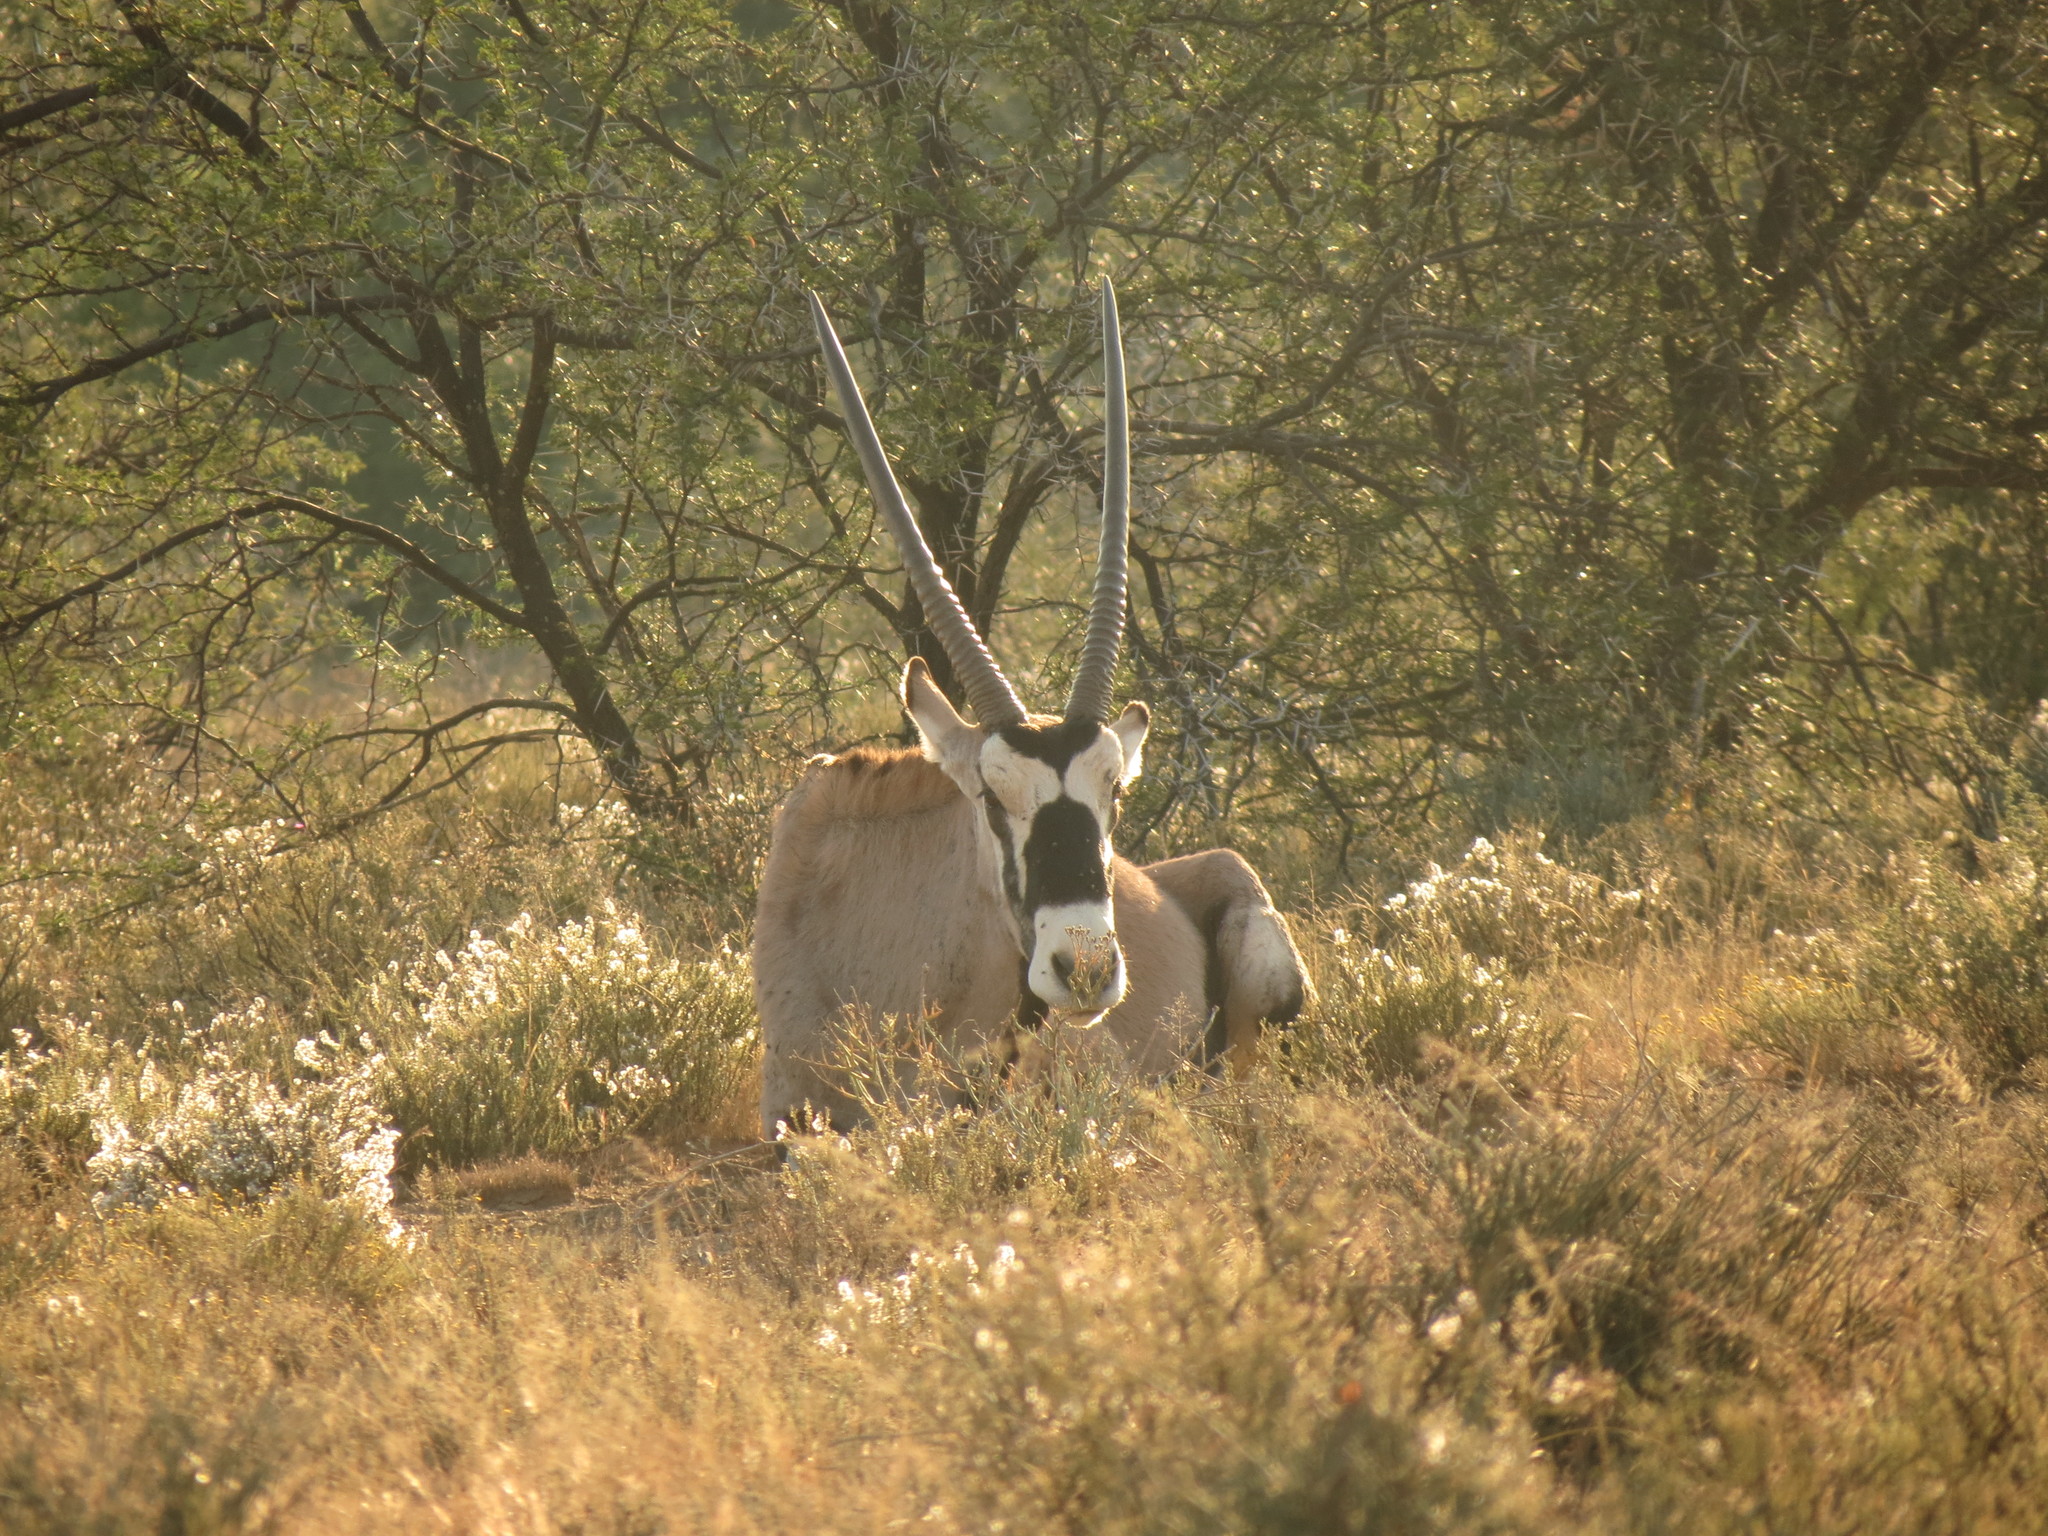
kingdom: Animalia
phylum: Chordata
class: Mammalia
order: Artiodactyla
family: Bovidae
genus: Oryx
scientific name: Oryx gazella
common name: Gemsbok
